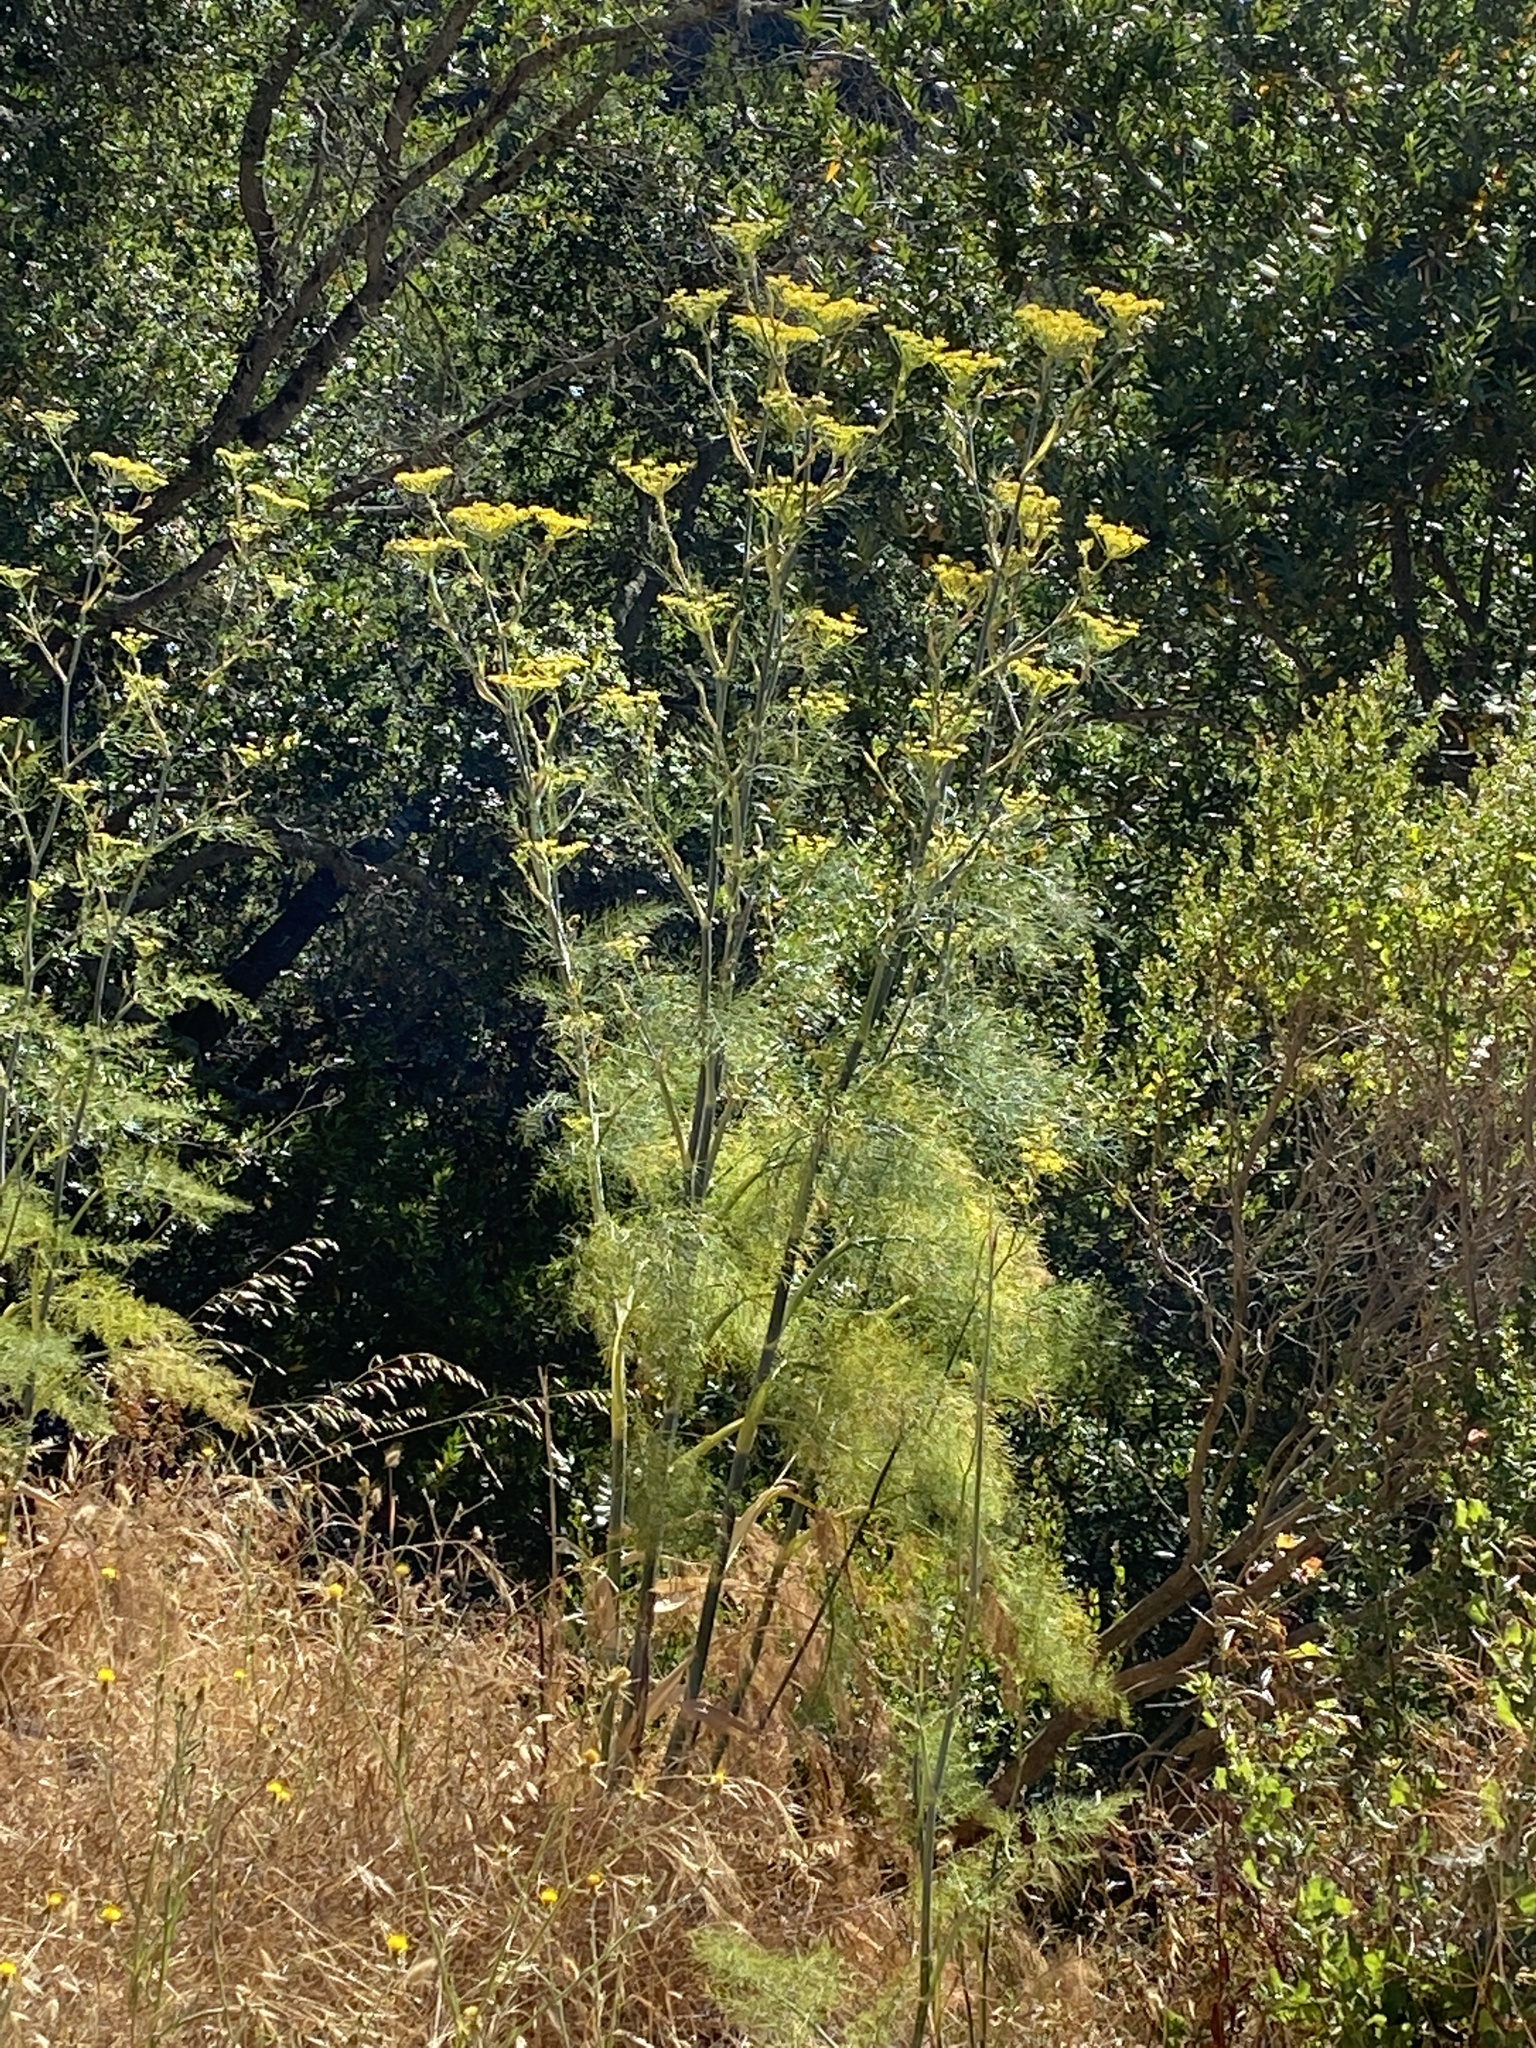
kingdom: Plantae
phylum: Tracheophyta
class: Magnoliopsida
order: Apiales
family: Apiaceae
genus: Foeniculum
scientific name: Foeniculum vulgare
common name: Fennel
